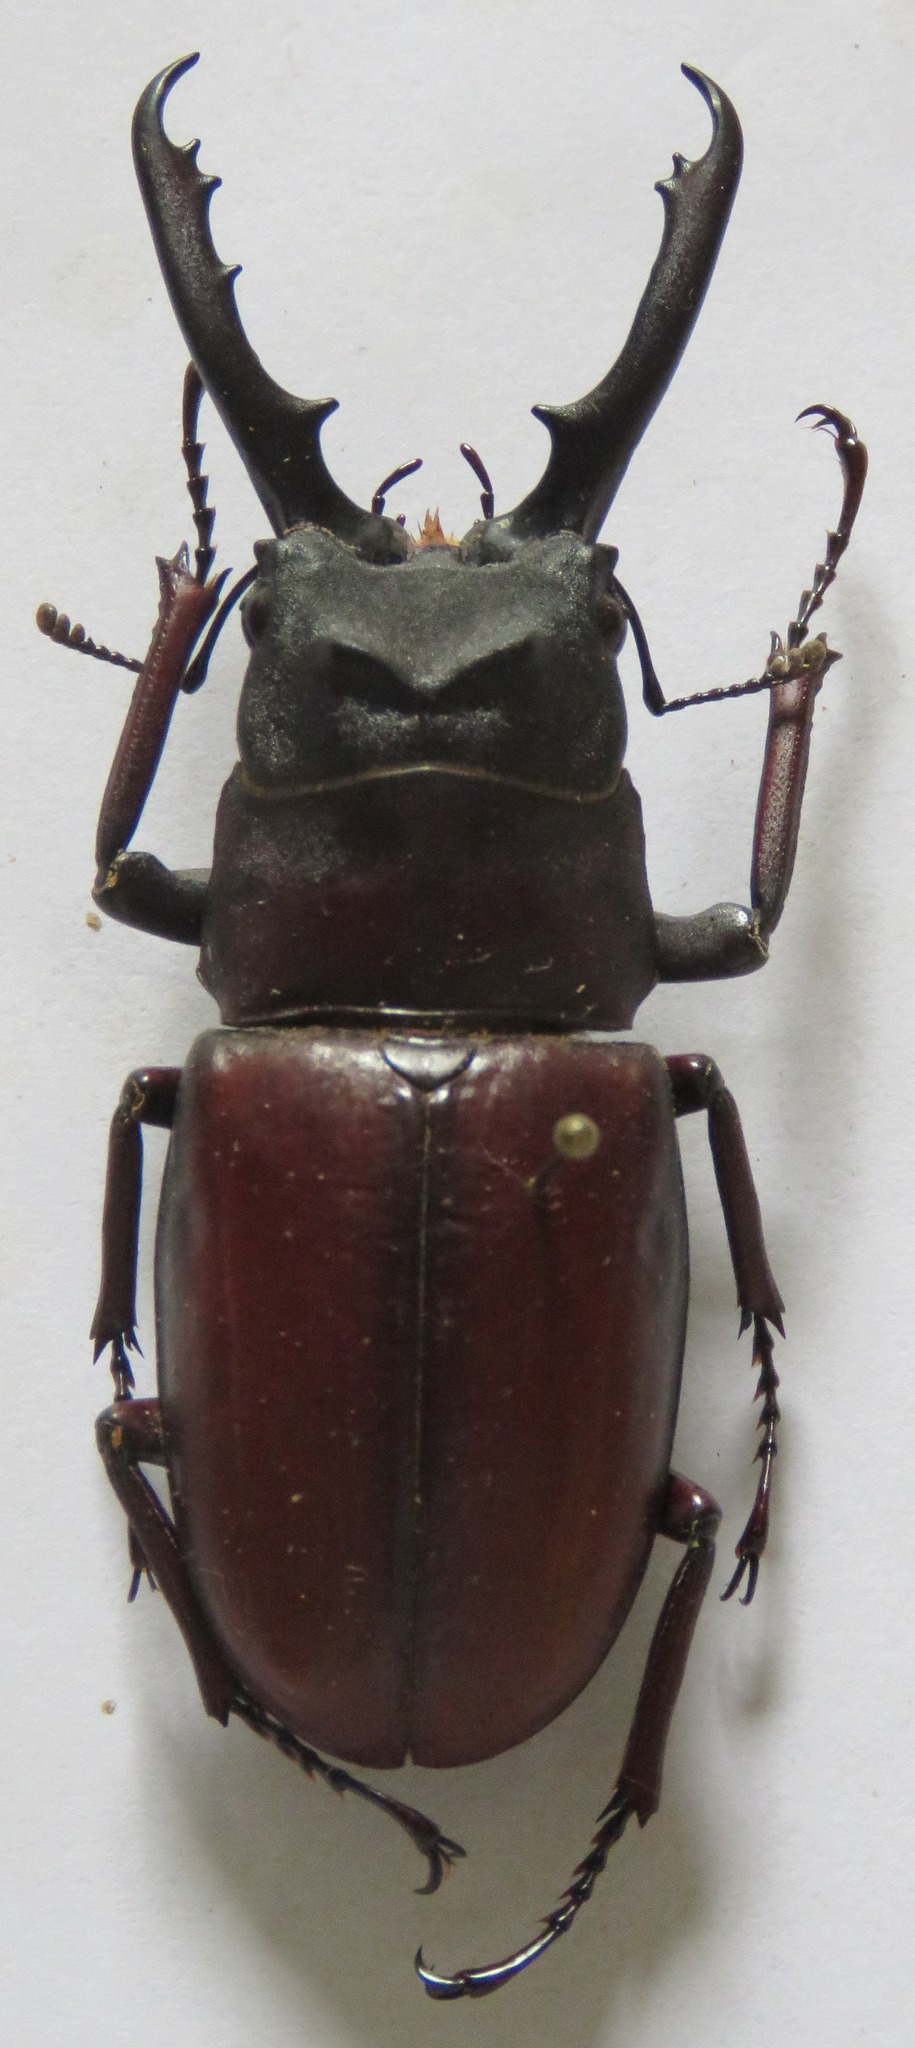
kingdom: Animalia
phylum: Arthropoda
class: Insecta
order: Coleoptera
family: Lucanidae
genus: Prosopocoilus
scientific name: Prosopocoilus myrmecoleon
